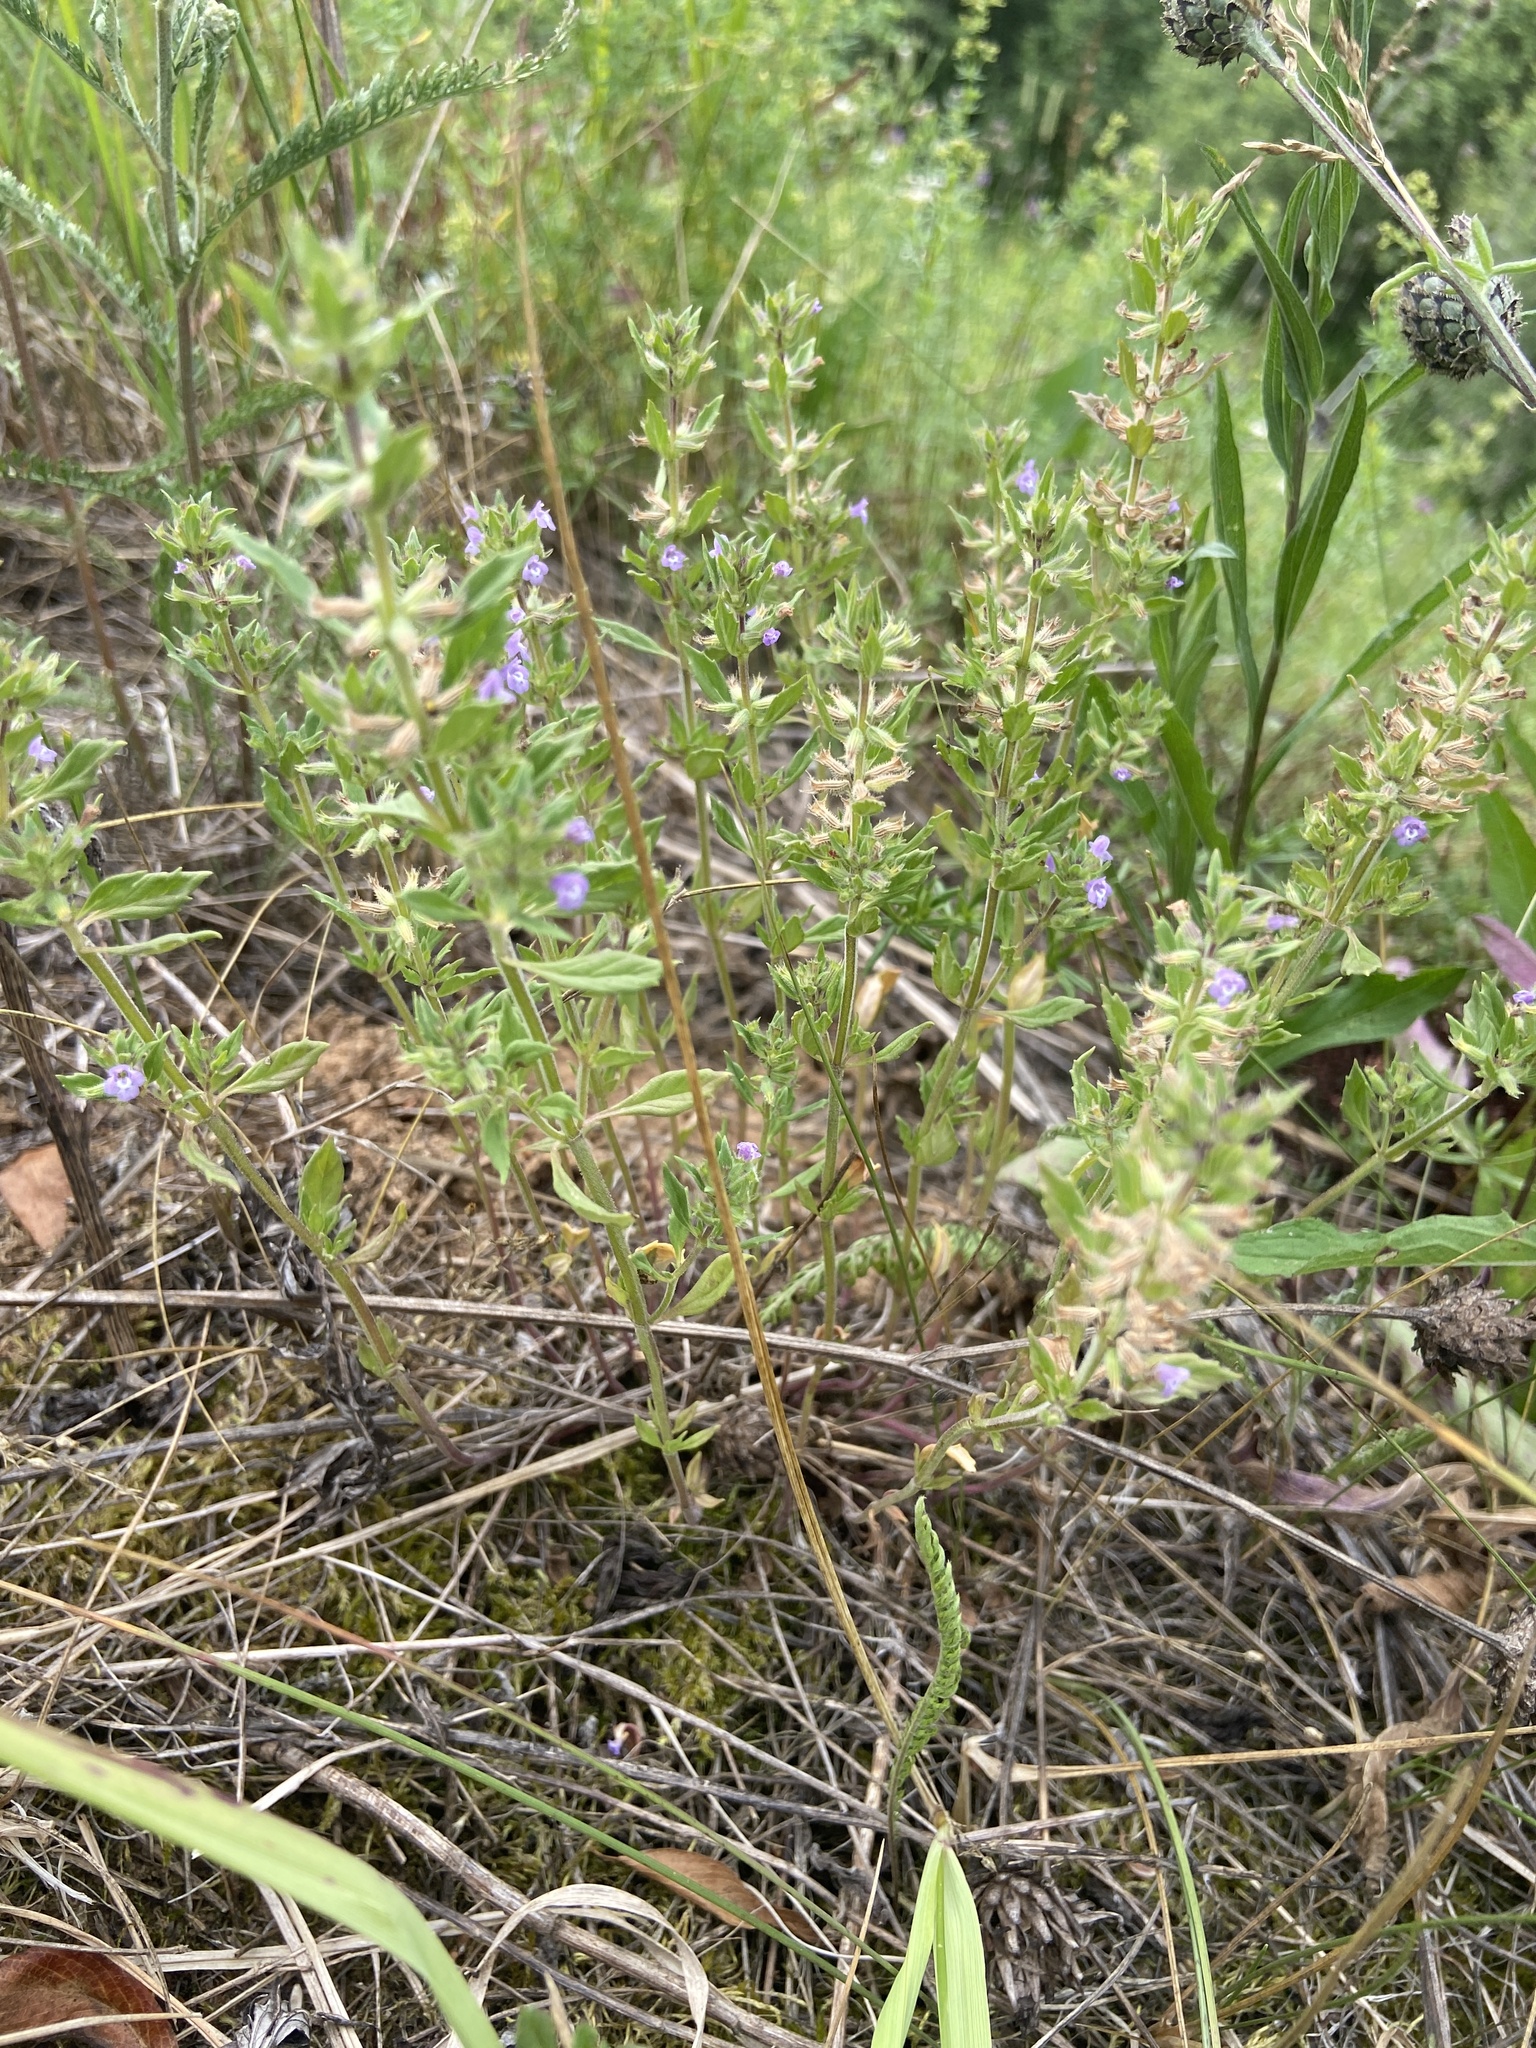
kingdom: Plantae
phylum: Tracheophyta
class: Magnoliopsida
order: Lamiales
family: Lamiaceae
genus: Clinopodium
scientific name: Clinopodium acinos
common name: Basil thyme
